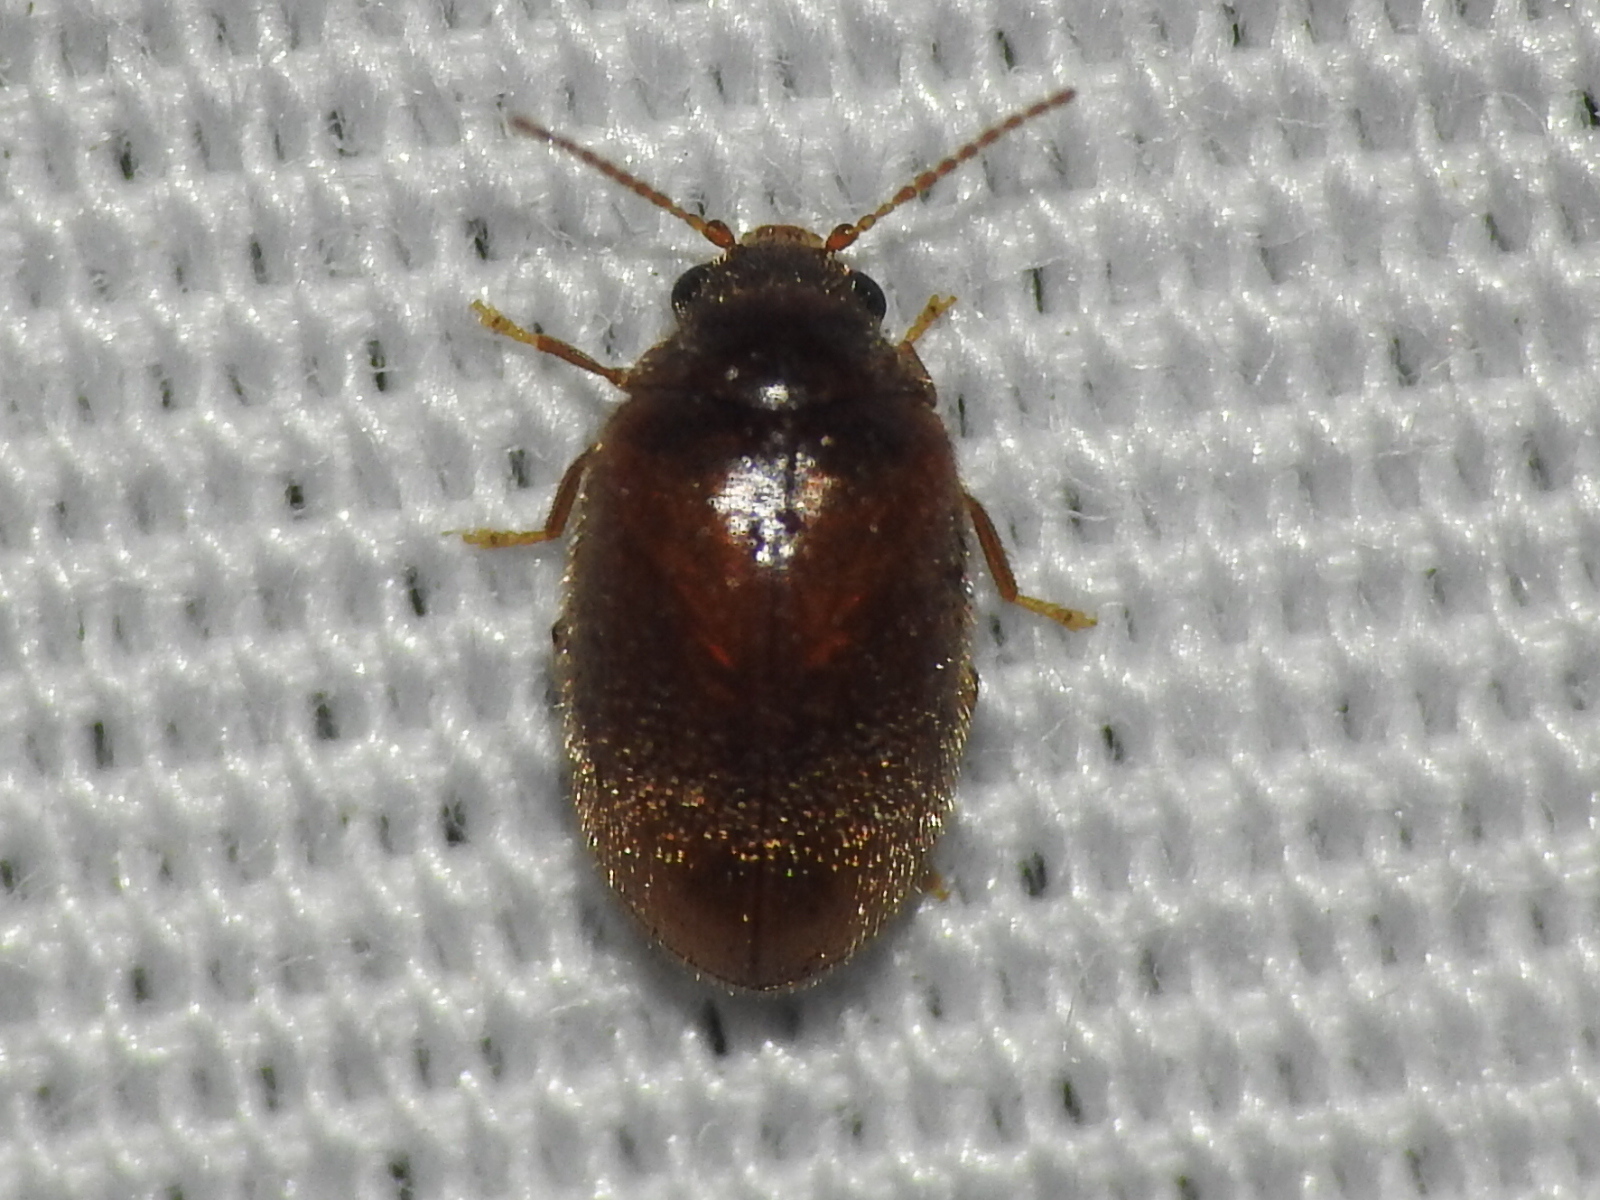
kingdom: Animalia
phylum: Arthropoda
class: Insecta
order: Coleoptera
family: Scirtidae
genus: Contacyphon
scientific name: Contacyphon
